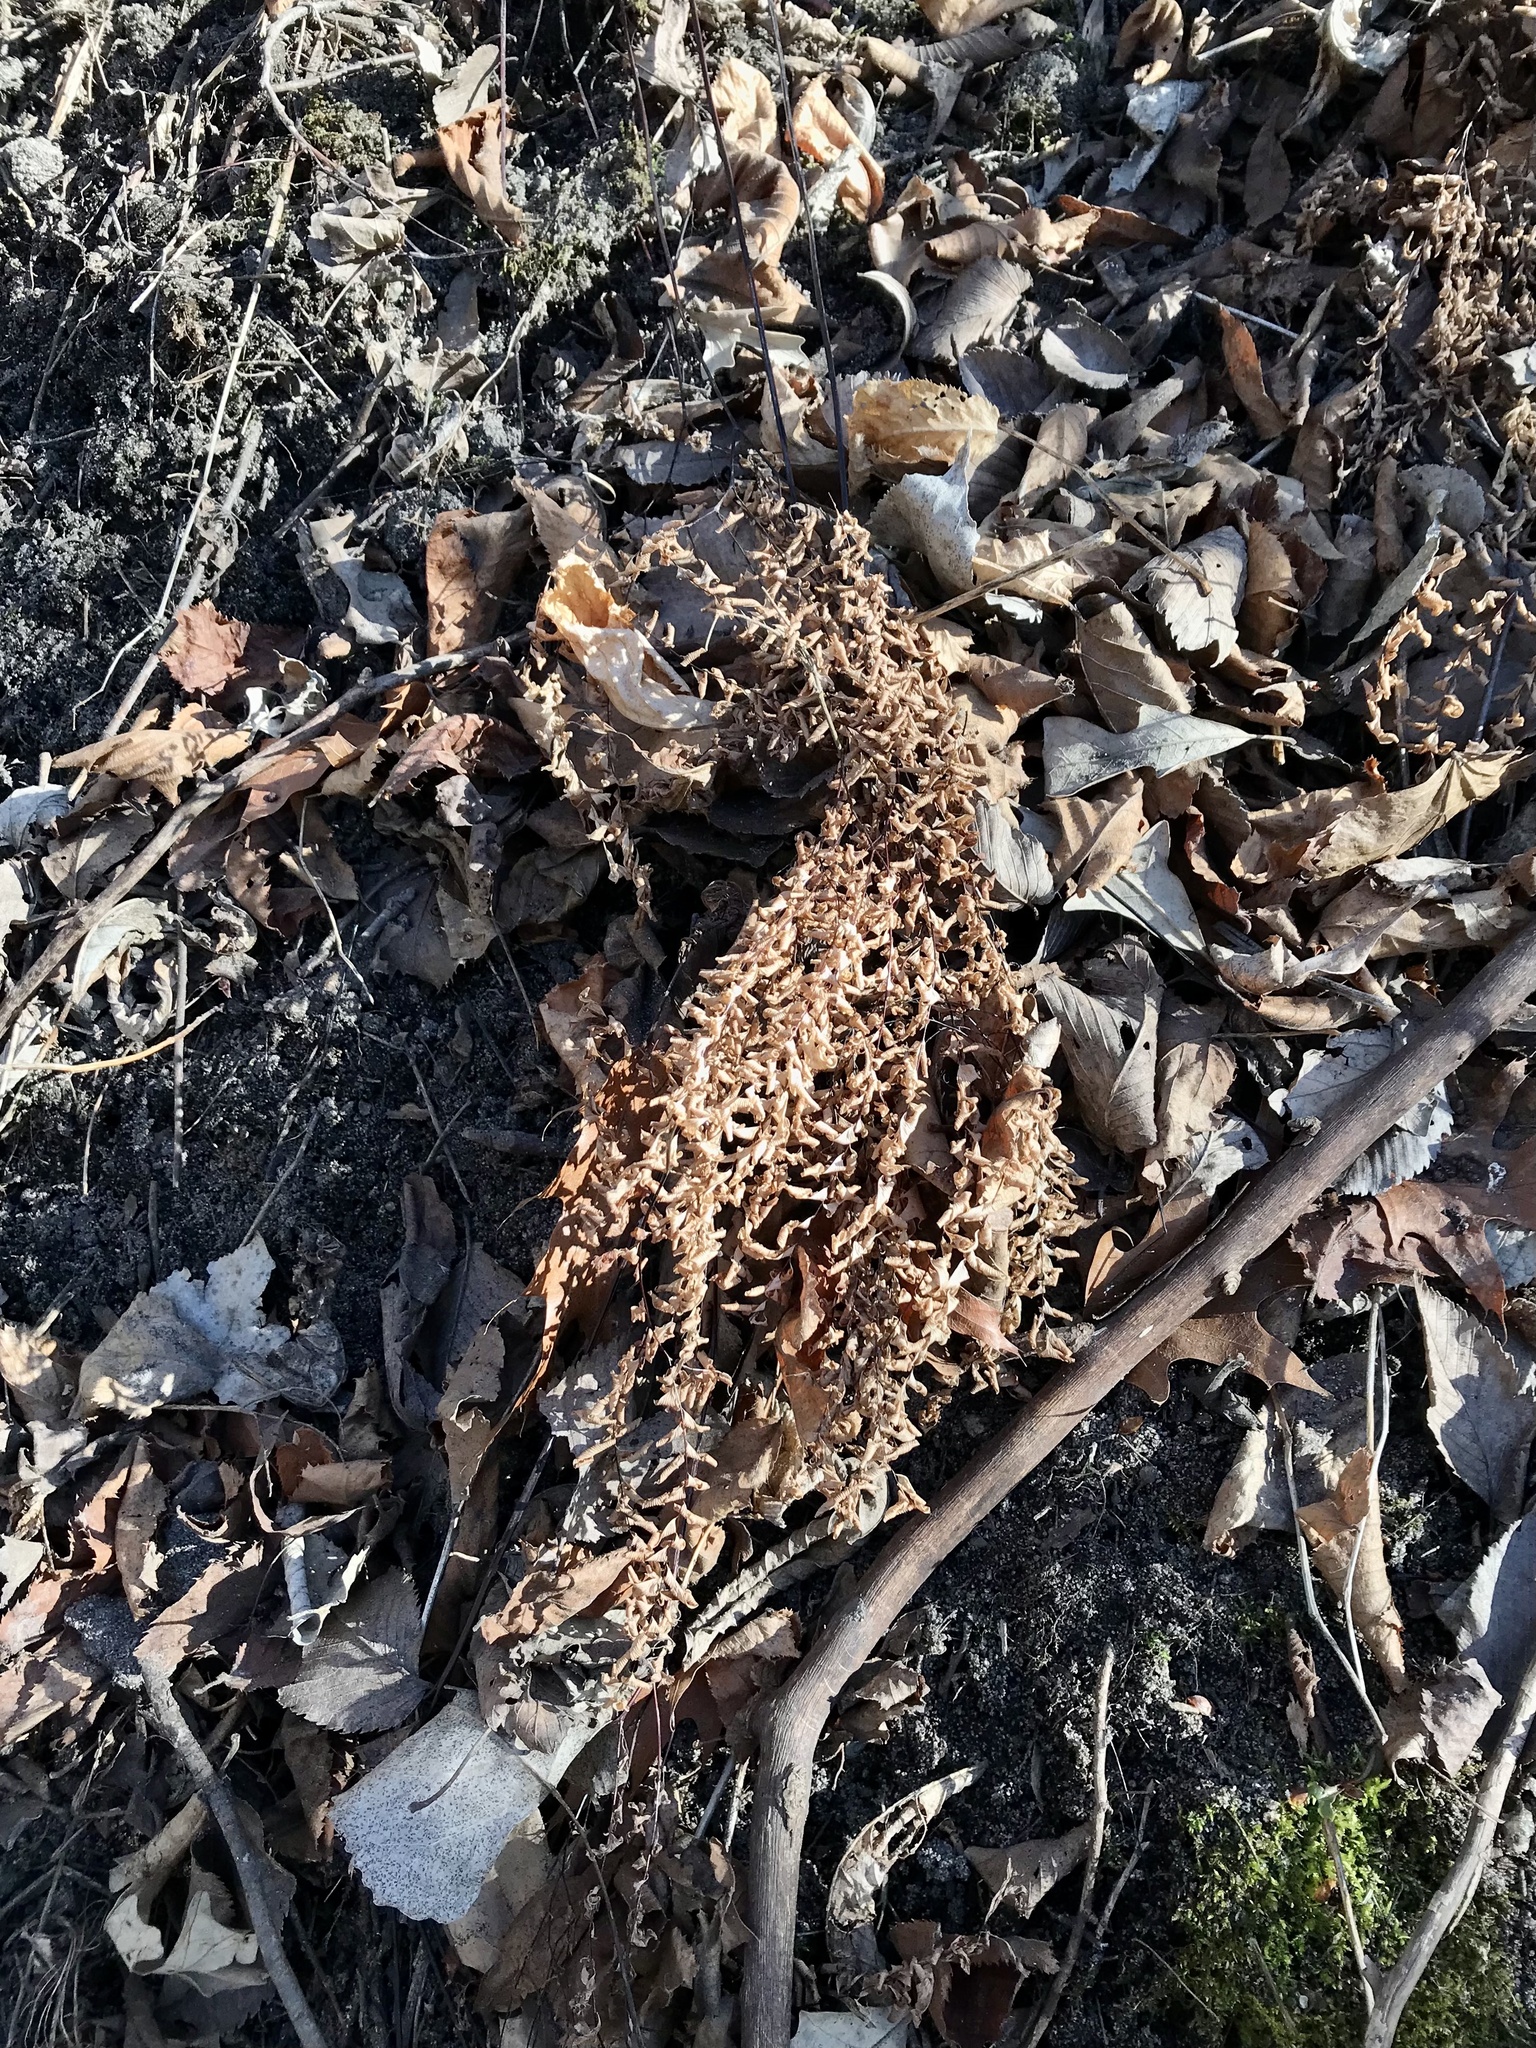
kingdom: Plantae
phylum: Tracheophyta
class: Polypodiopsida
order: Polypodiales
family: Pteridaceae
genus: Adiantum
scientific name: Adiantum pedatum
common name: Five-finger fern
